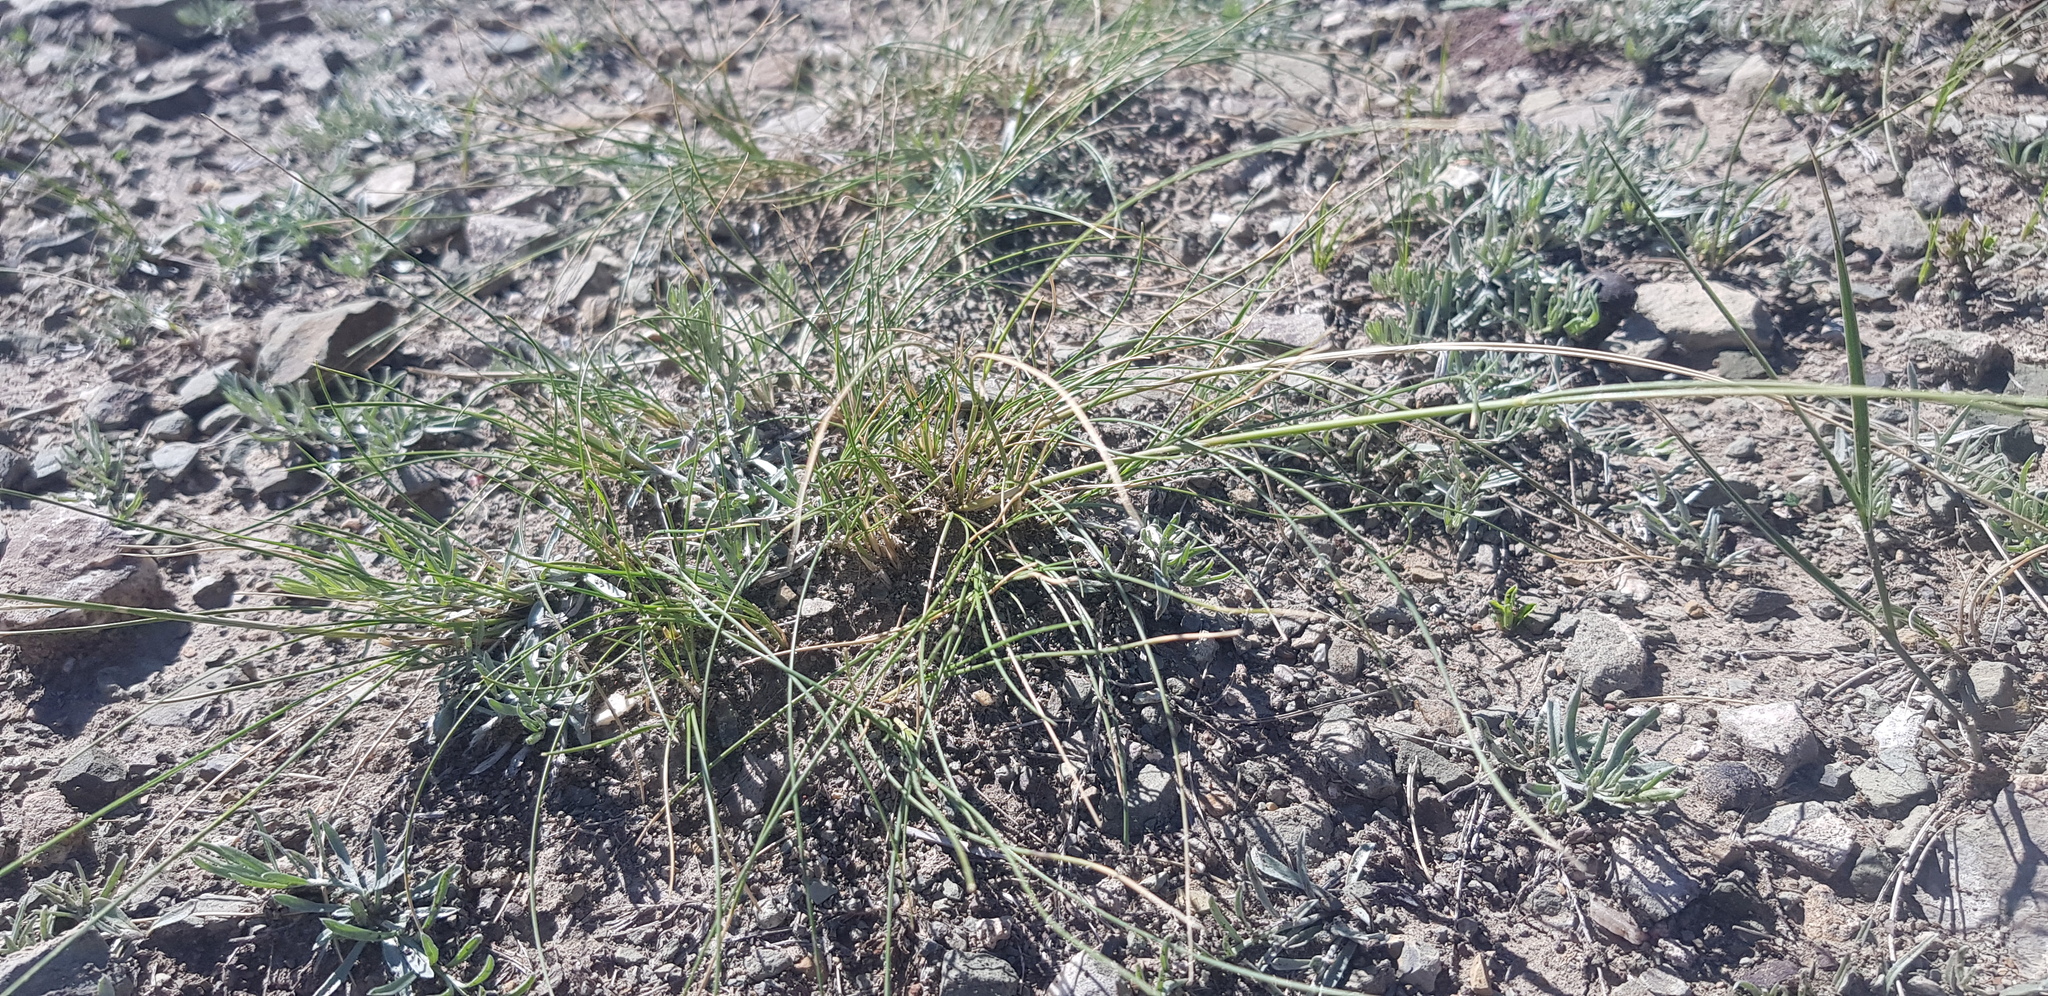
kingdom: Plantae
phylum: Tracheophyta
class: Liliopsida
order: Poales
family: Poaceae
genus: Stipa
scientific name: Stipa krylovii
